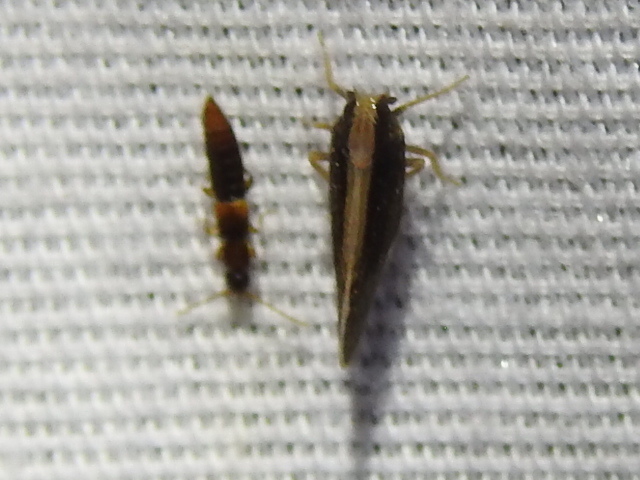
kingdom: Animalia
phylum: Arthropoda
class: Insecta
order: Hemiptera
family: Cixiidae
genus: Pintalia
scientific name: Pintalia delicata
